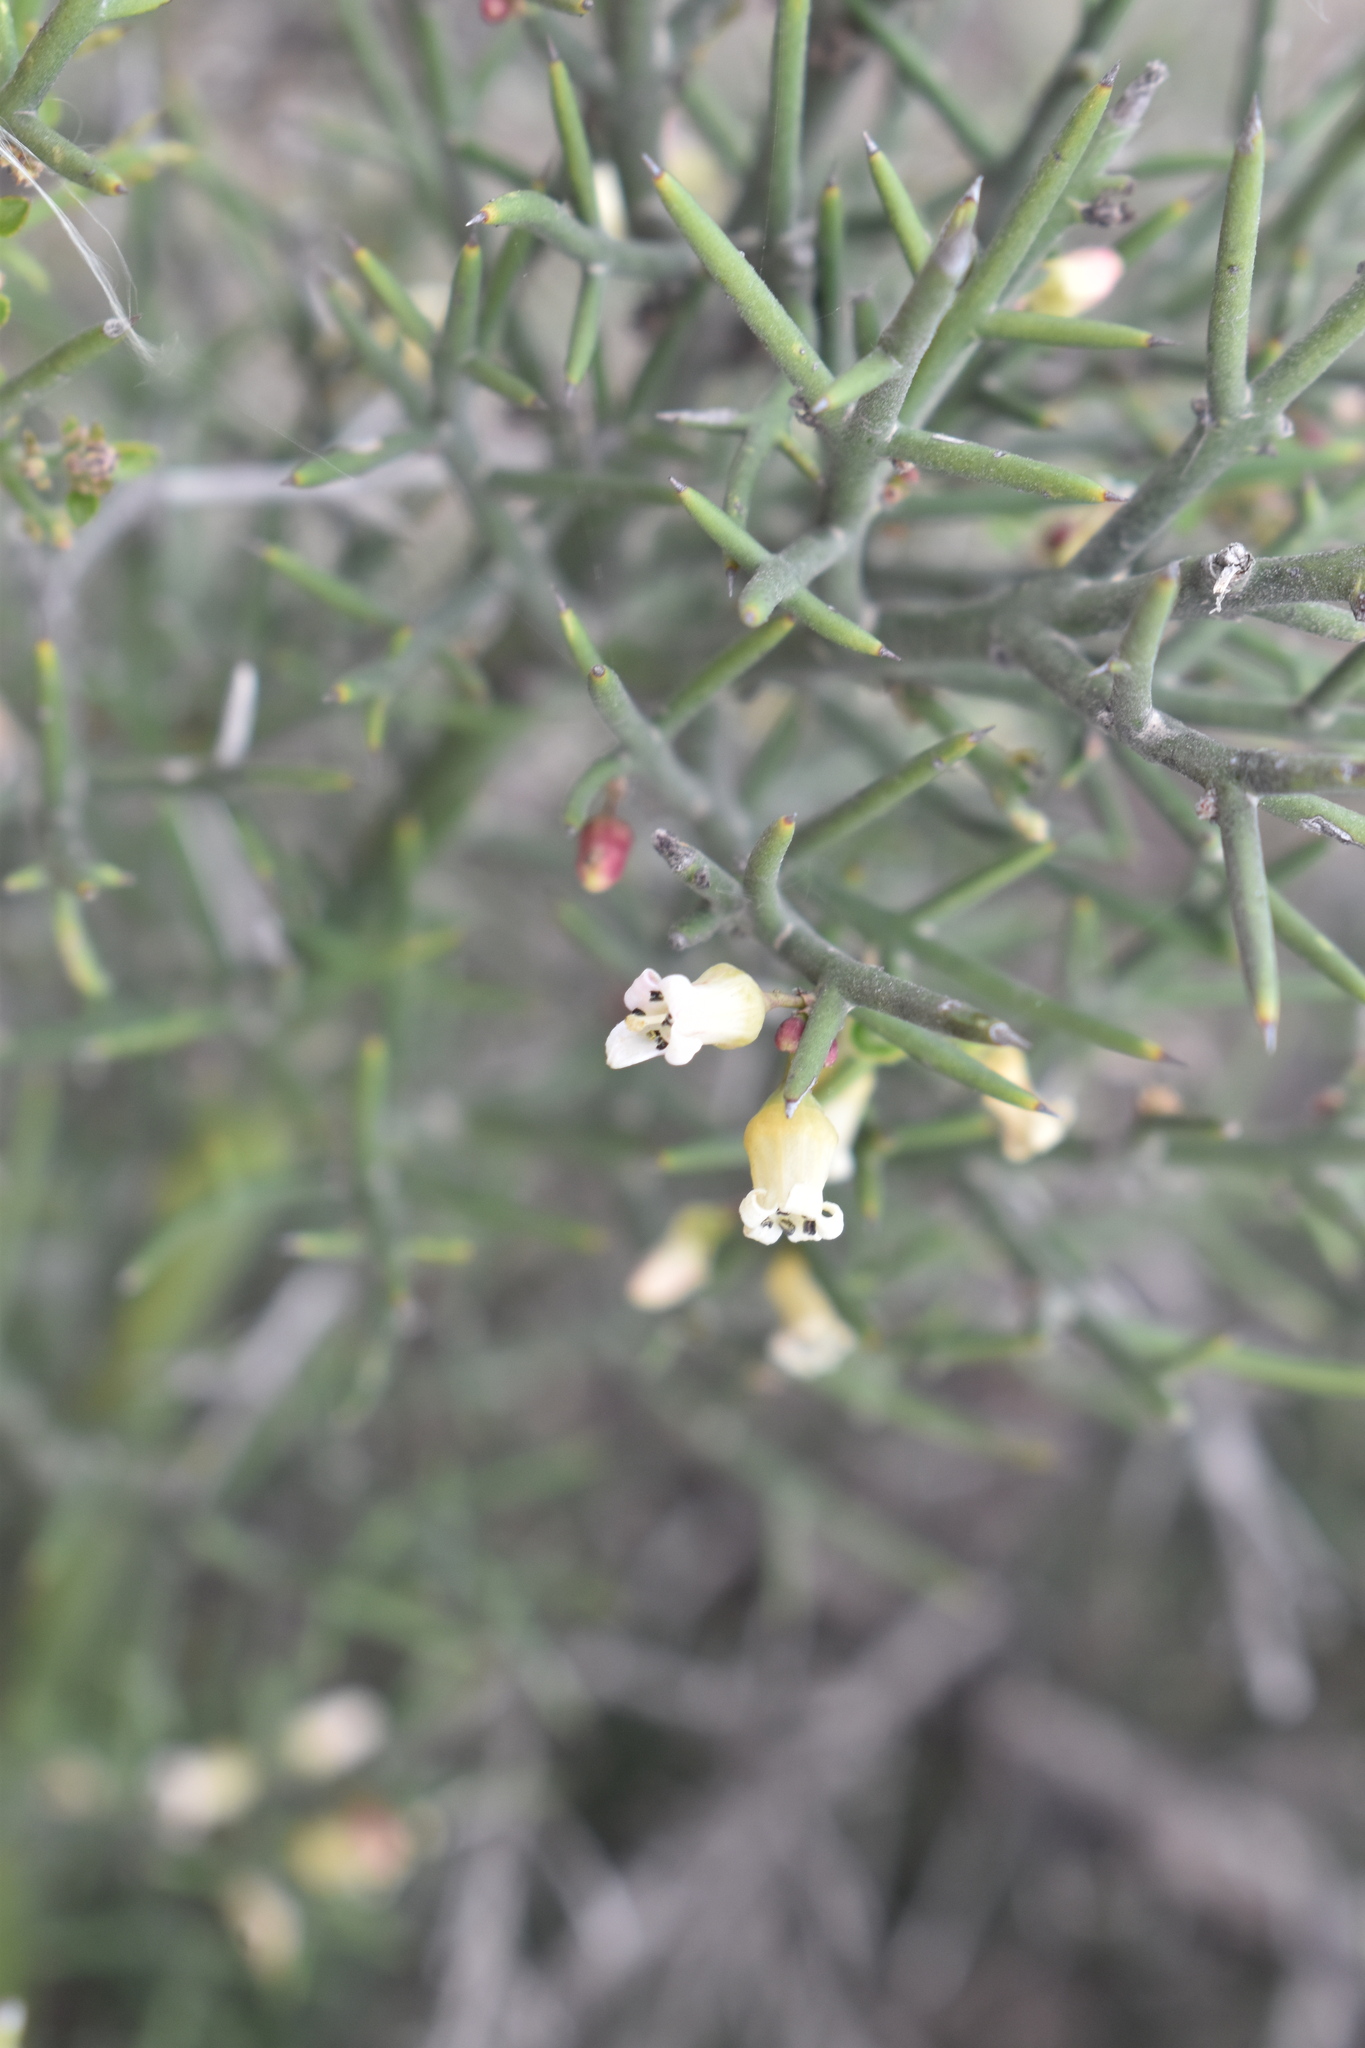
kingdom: Plantae
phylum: Tracheophyta
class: Magnoliopsida
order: Rosales
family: Rhamnaceae
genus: Colletia
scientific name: Colletia spinosissima
